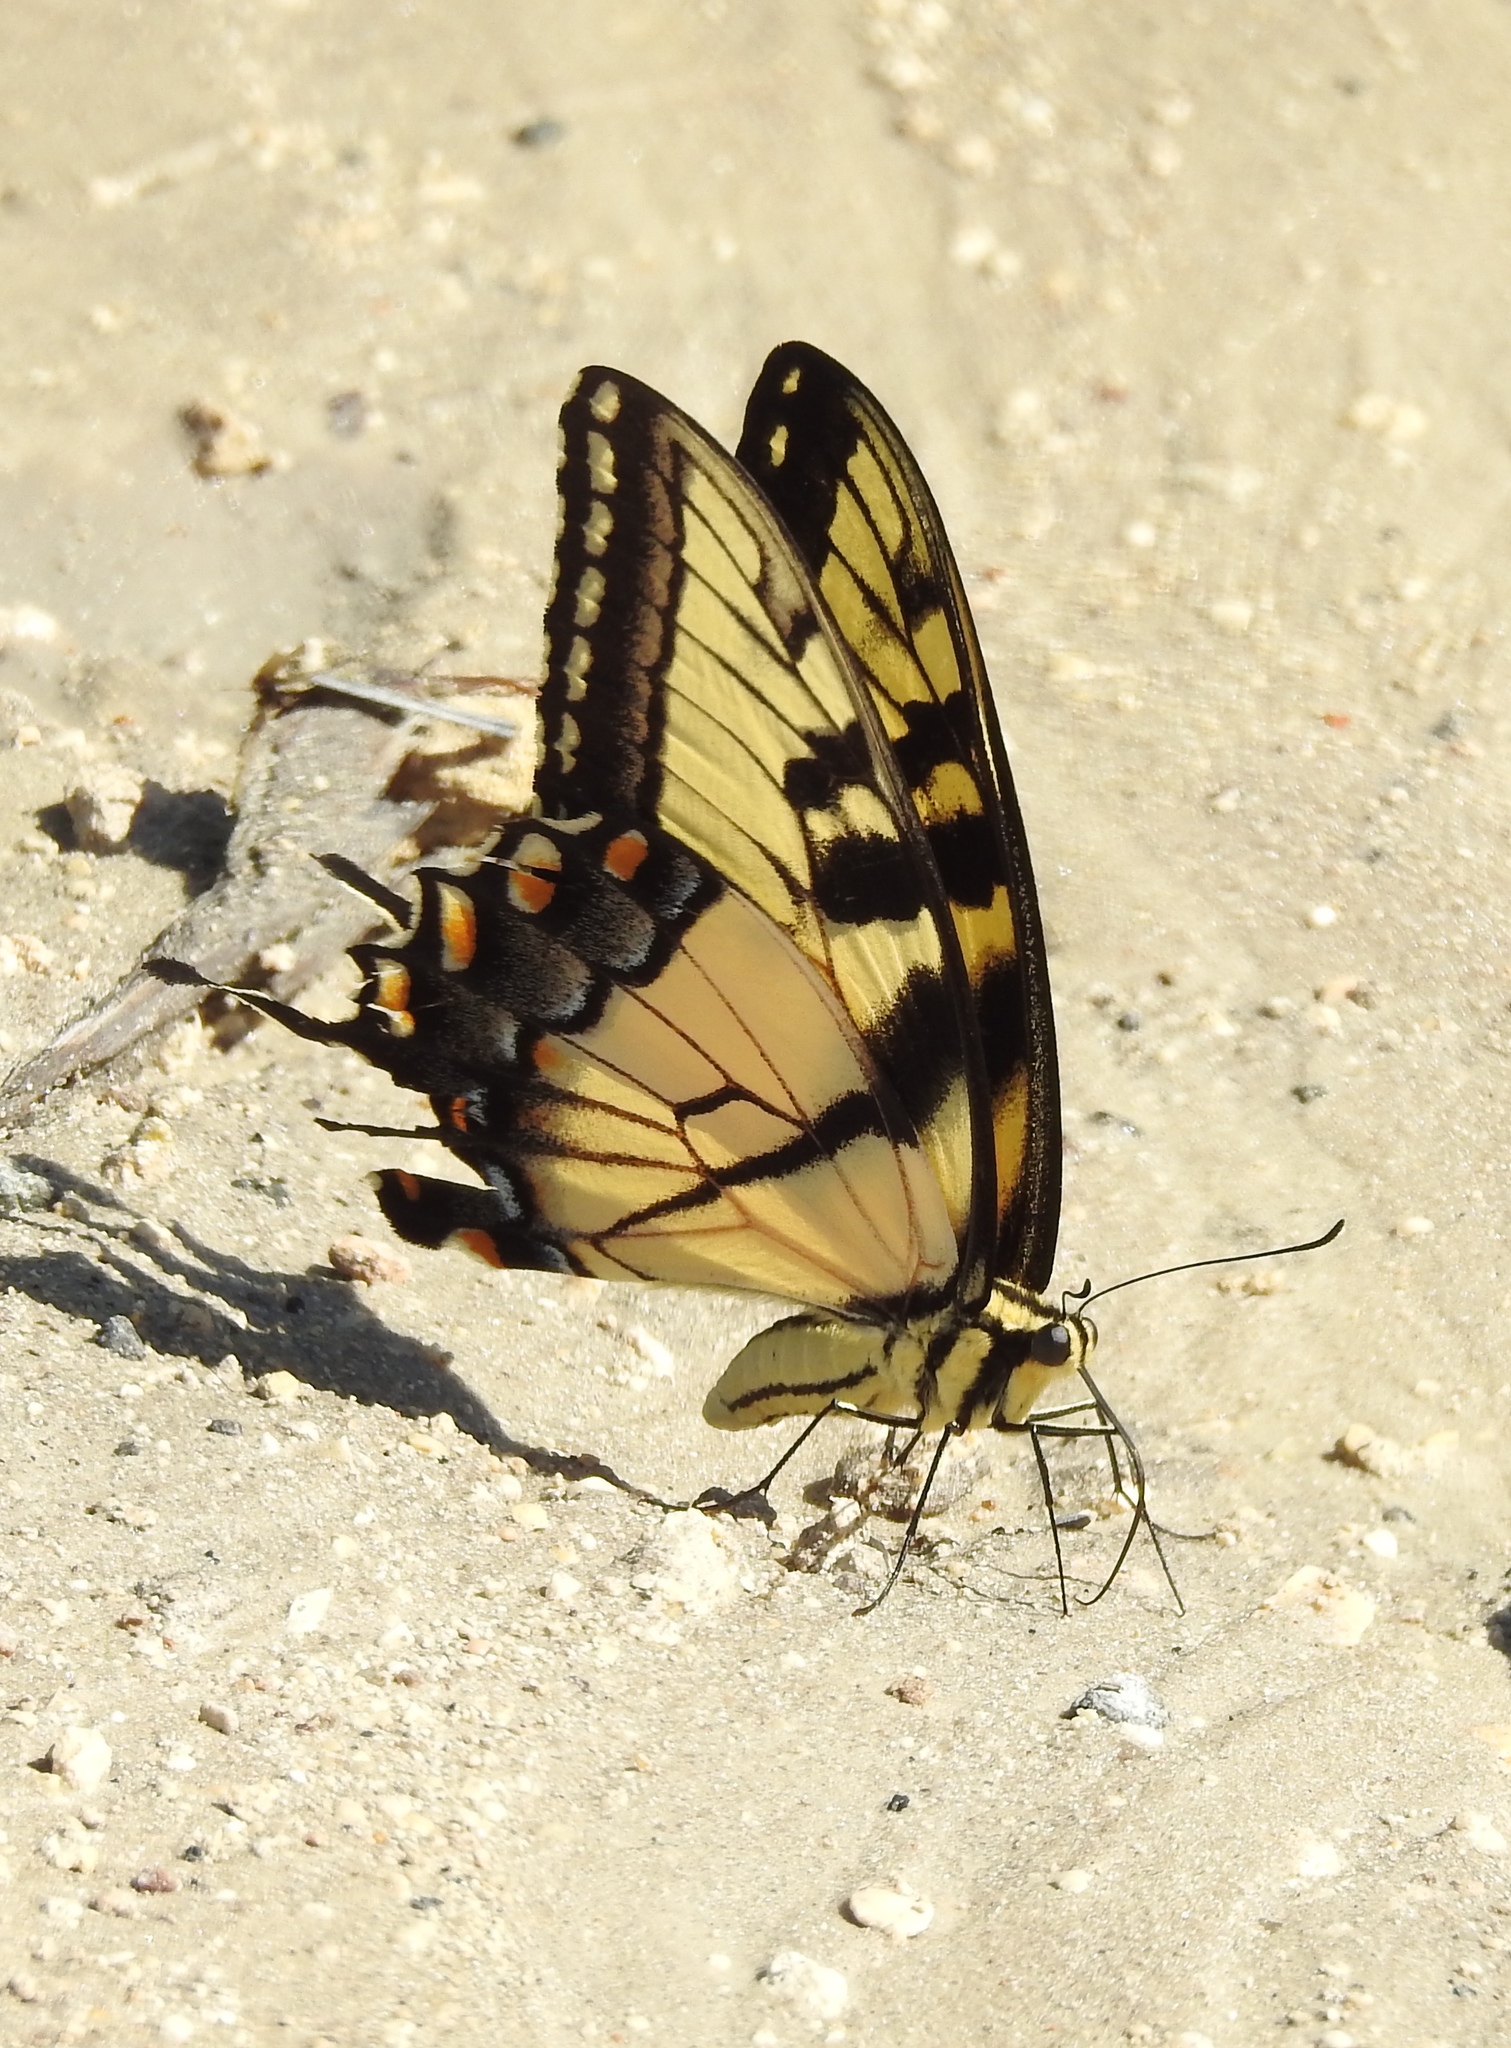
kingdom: Animalia
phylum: Arthropoda
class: Insecta
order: Lepidoptera
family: Papilionidae
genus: Papilio
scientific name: Papilio glaucus
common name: Tiger swallowtail
